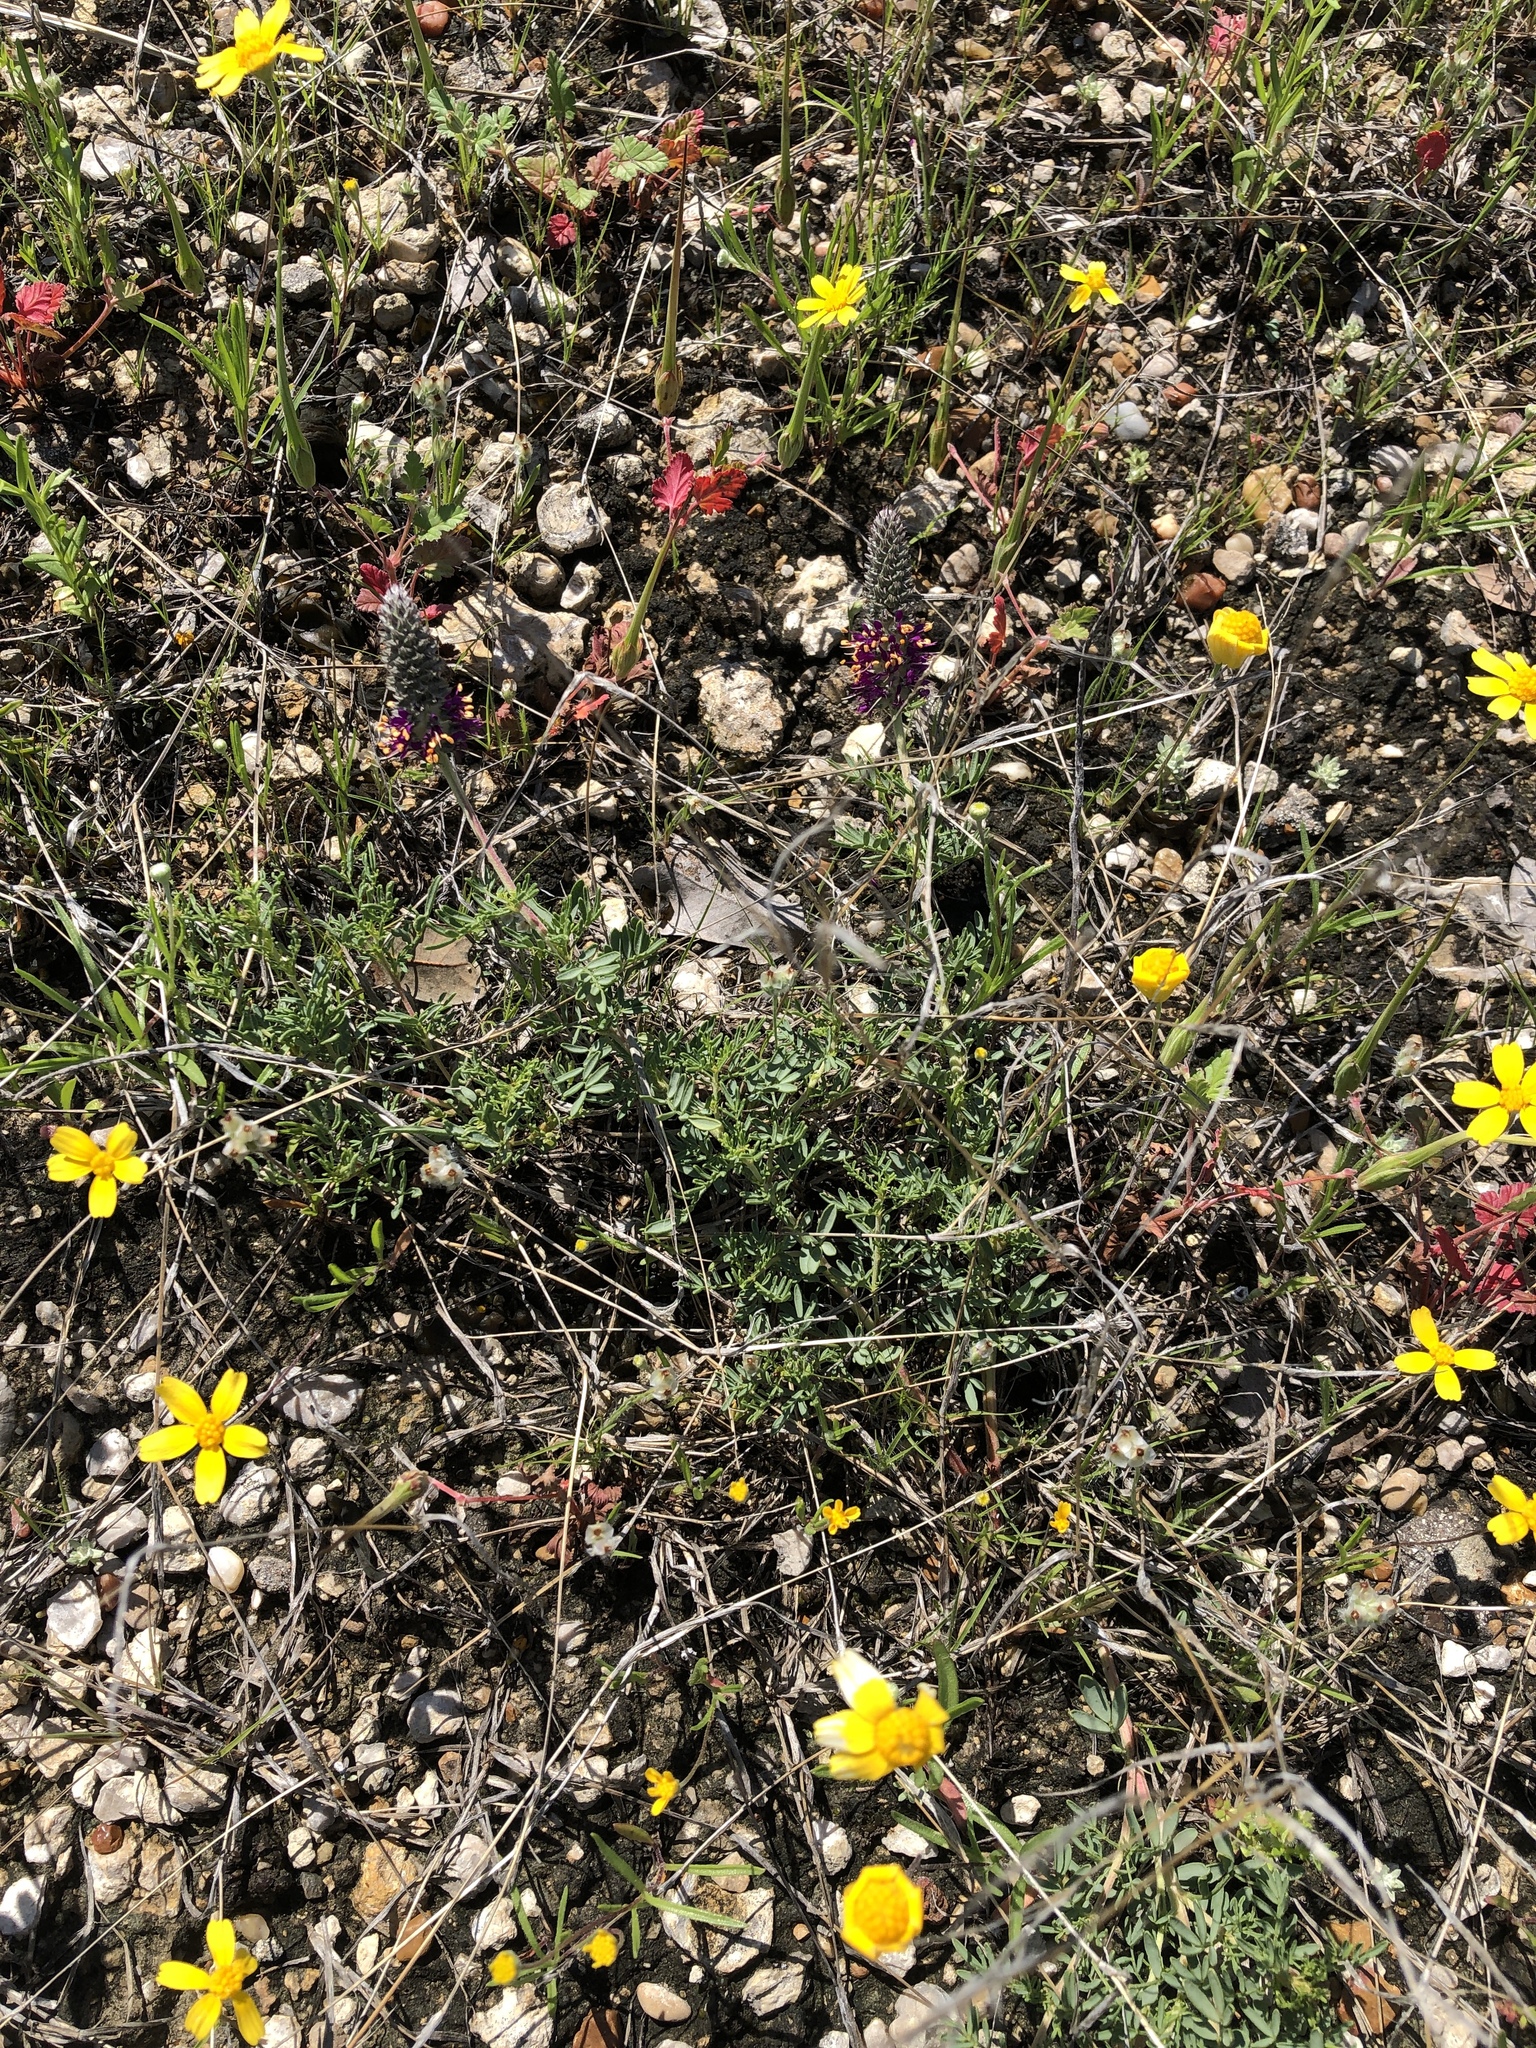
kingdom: Plantae
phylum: Tracheophyta
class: Magnoliopsida
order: Fabales
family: Fabaceae
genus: Dalea
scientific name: Dalea reverchonii
